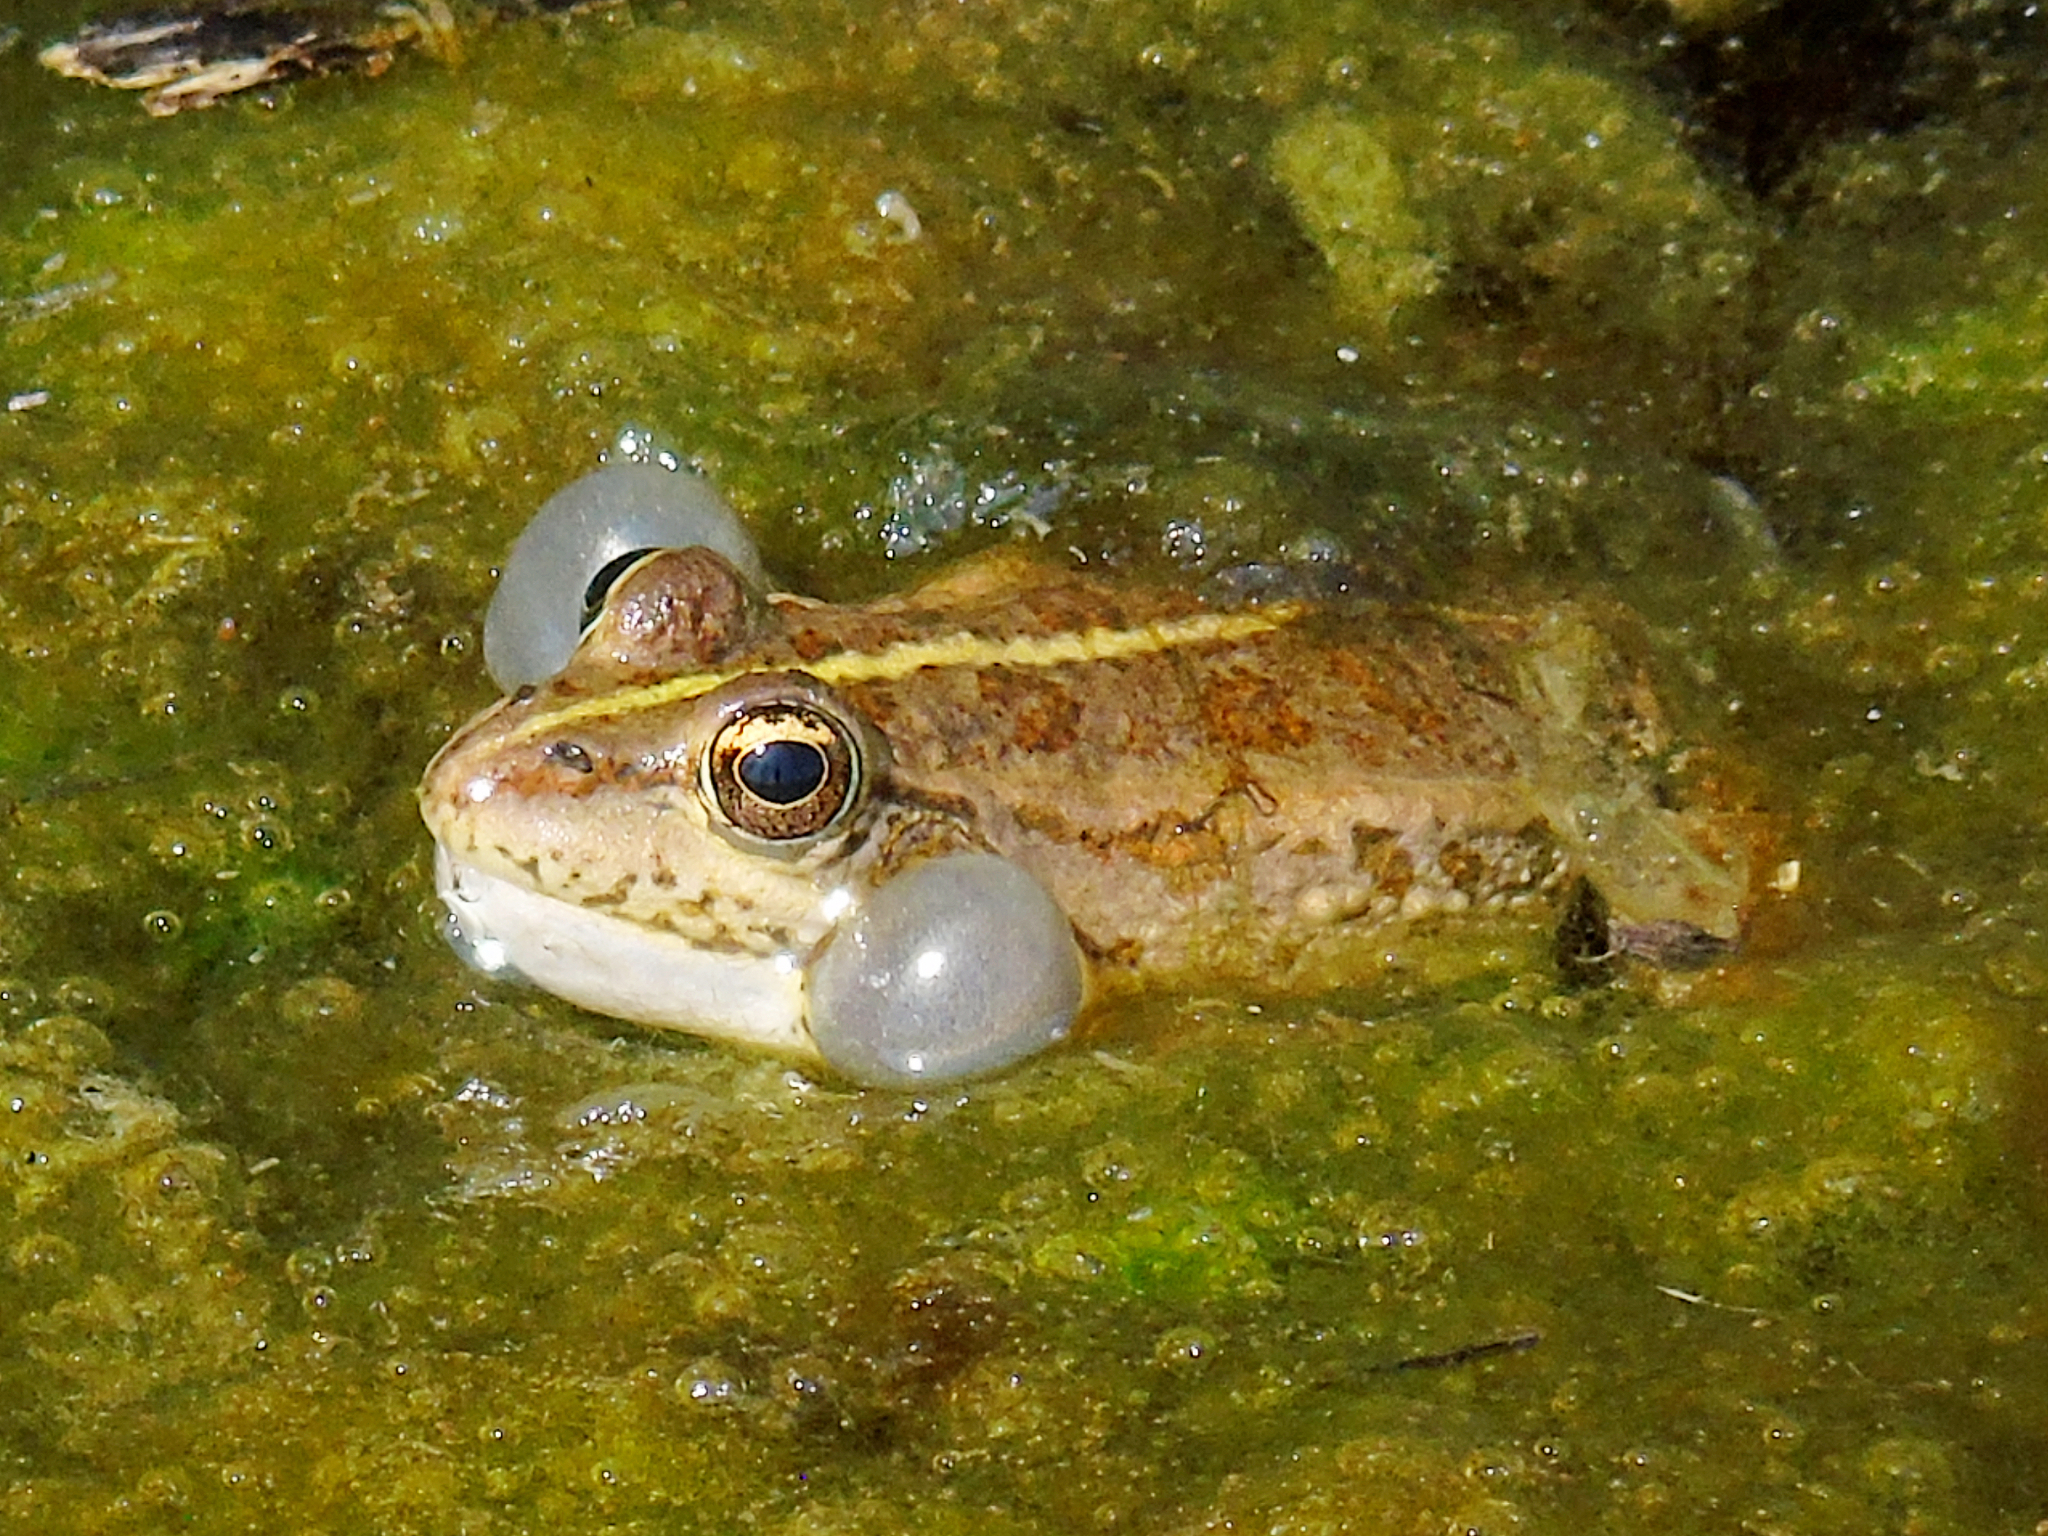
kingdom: Animalia
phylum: Chordata
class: Amphibia
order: Anura
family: Ranidae
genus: Pelophylax
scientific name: Pelophylax ridibundus
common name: Marsh frog
